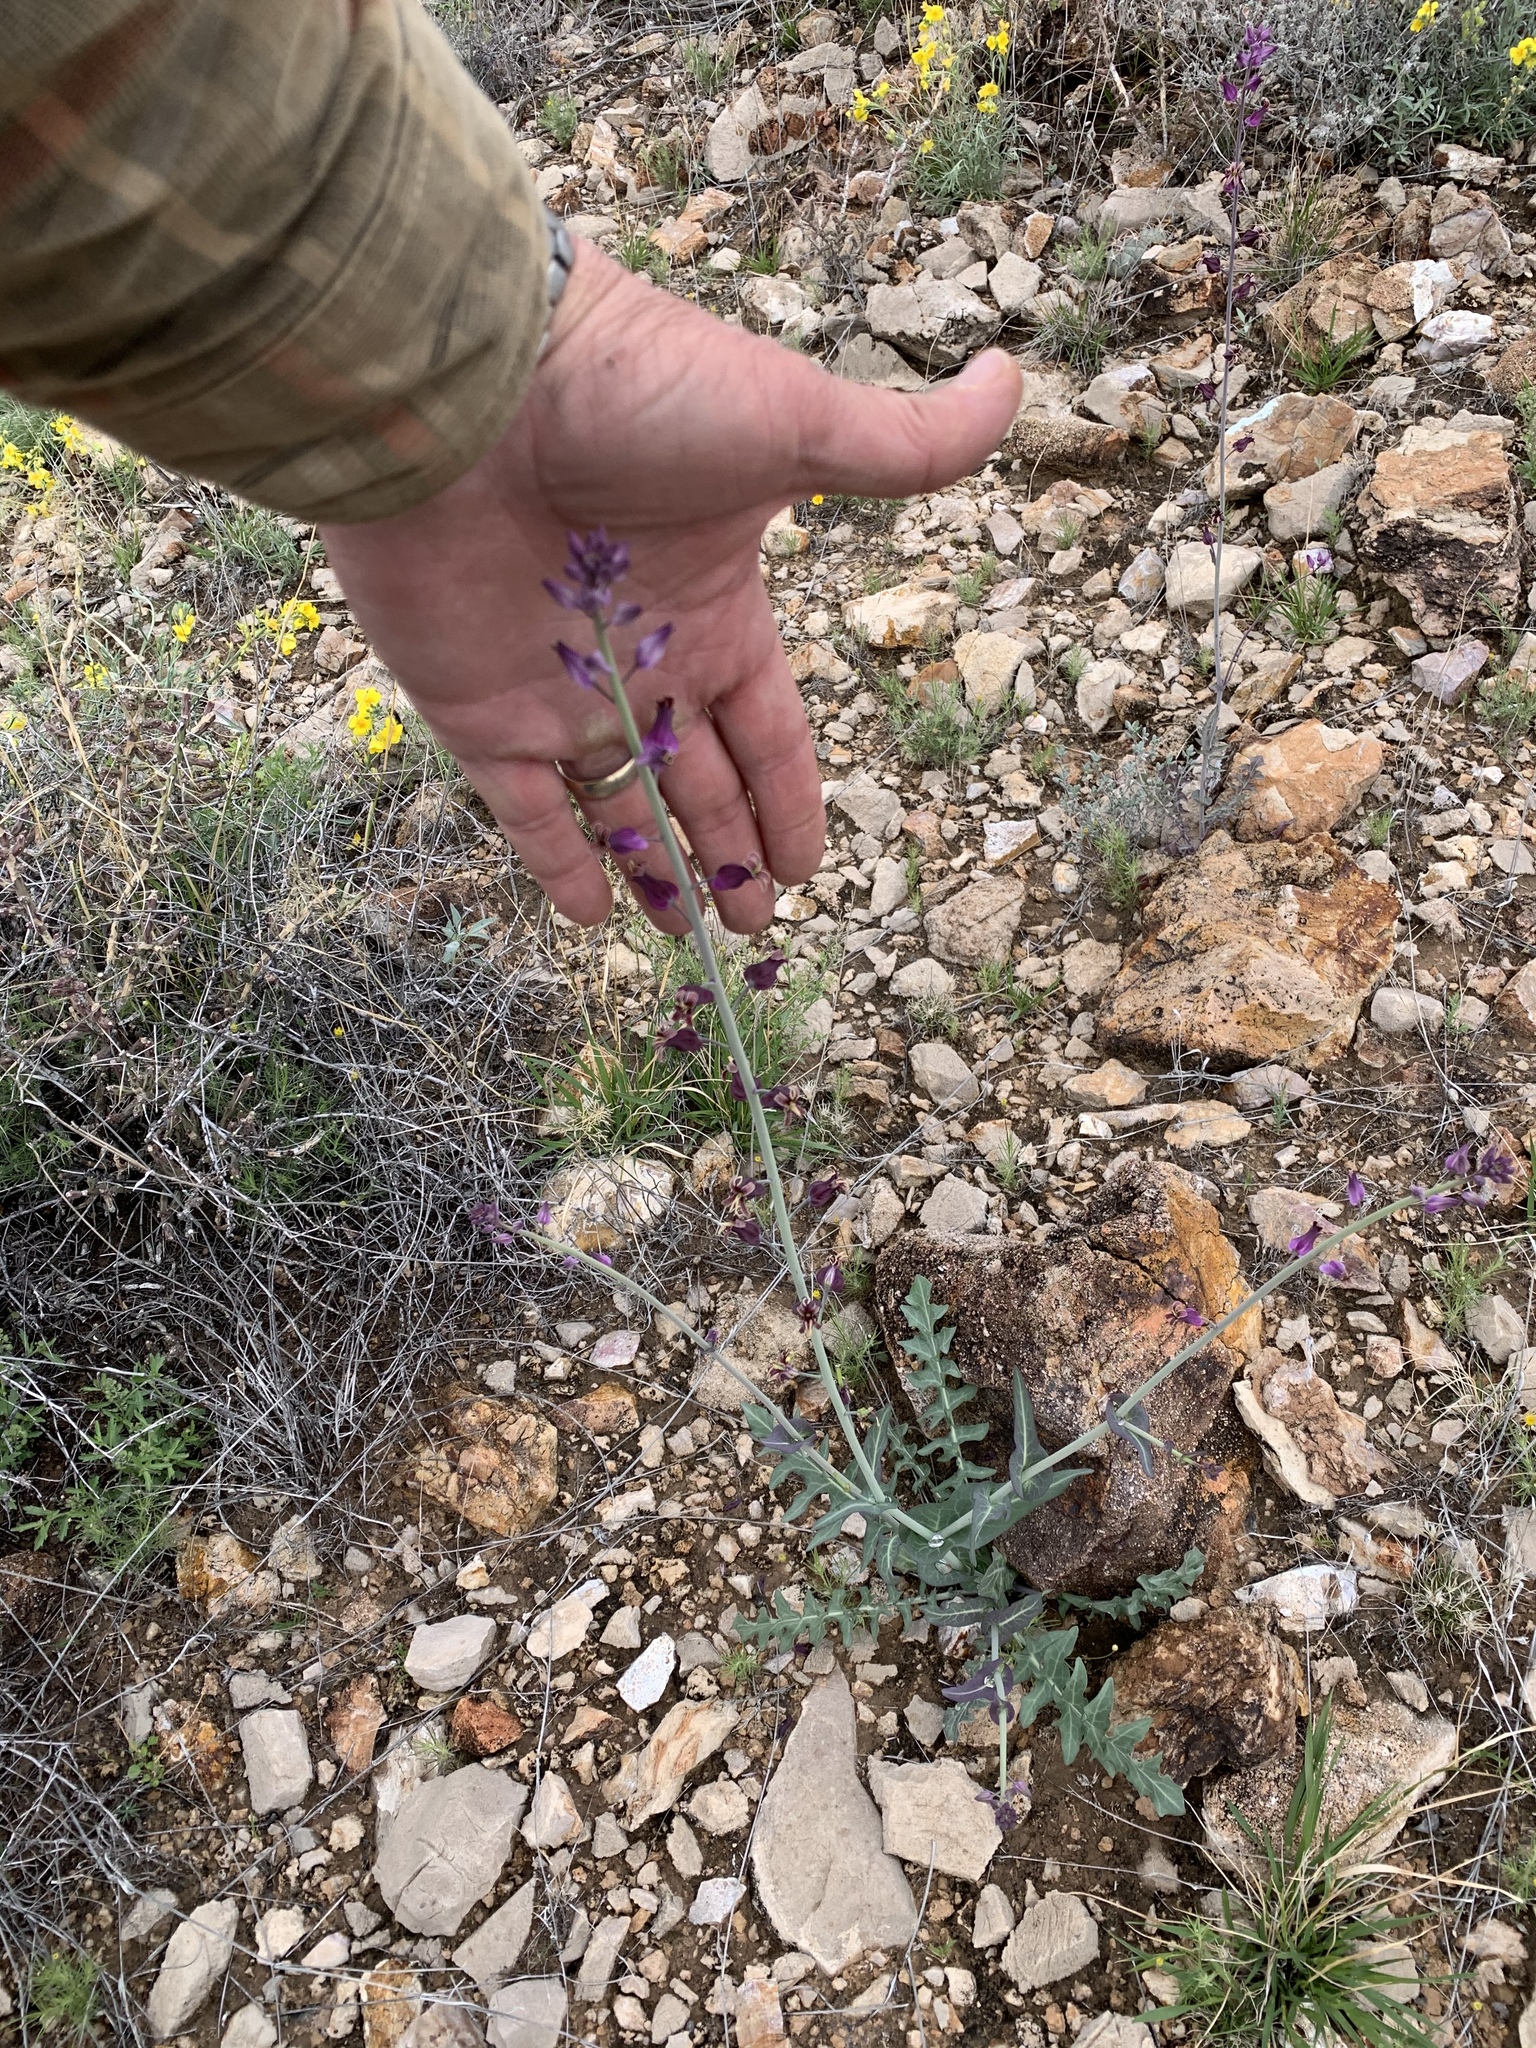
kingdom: Plantae
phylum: Tracheophyta
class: Magnoliopsida
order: Brassicales
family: Brassicaceae
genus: Streptanthus
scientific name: Streptanthus carinatus
